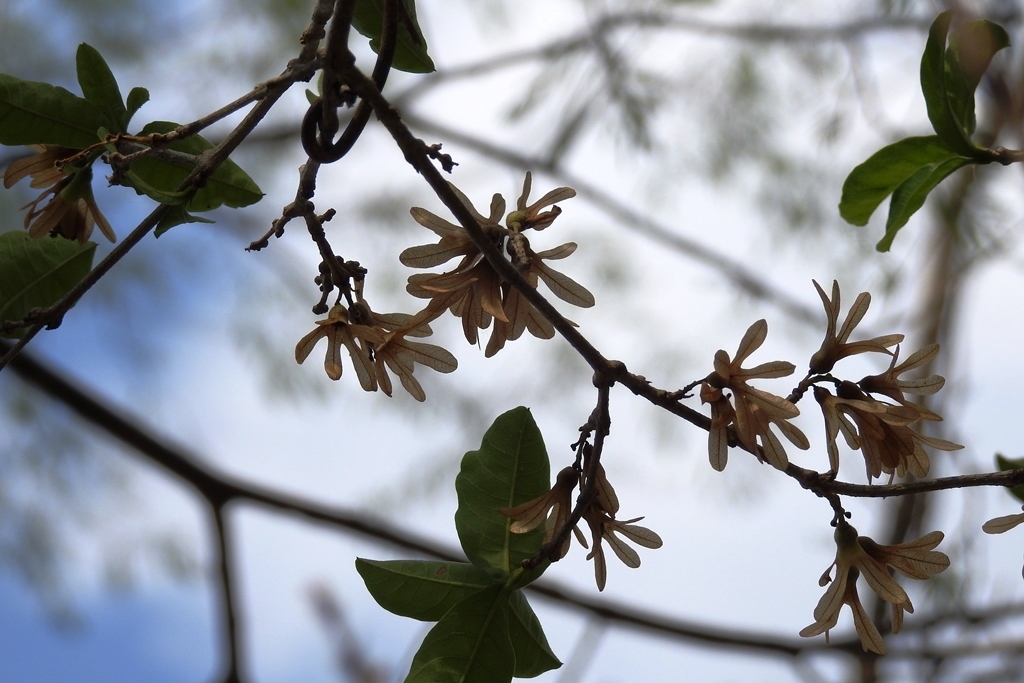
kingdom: Plantae
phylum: Tracheophyta
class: Magnoliopsida
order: Lamiales
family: Verbenaceae
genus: Petrea
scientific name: Petrea asperifolia
